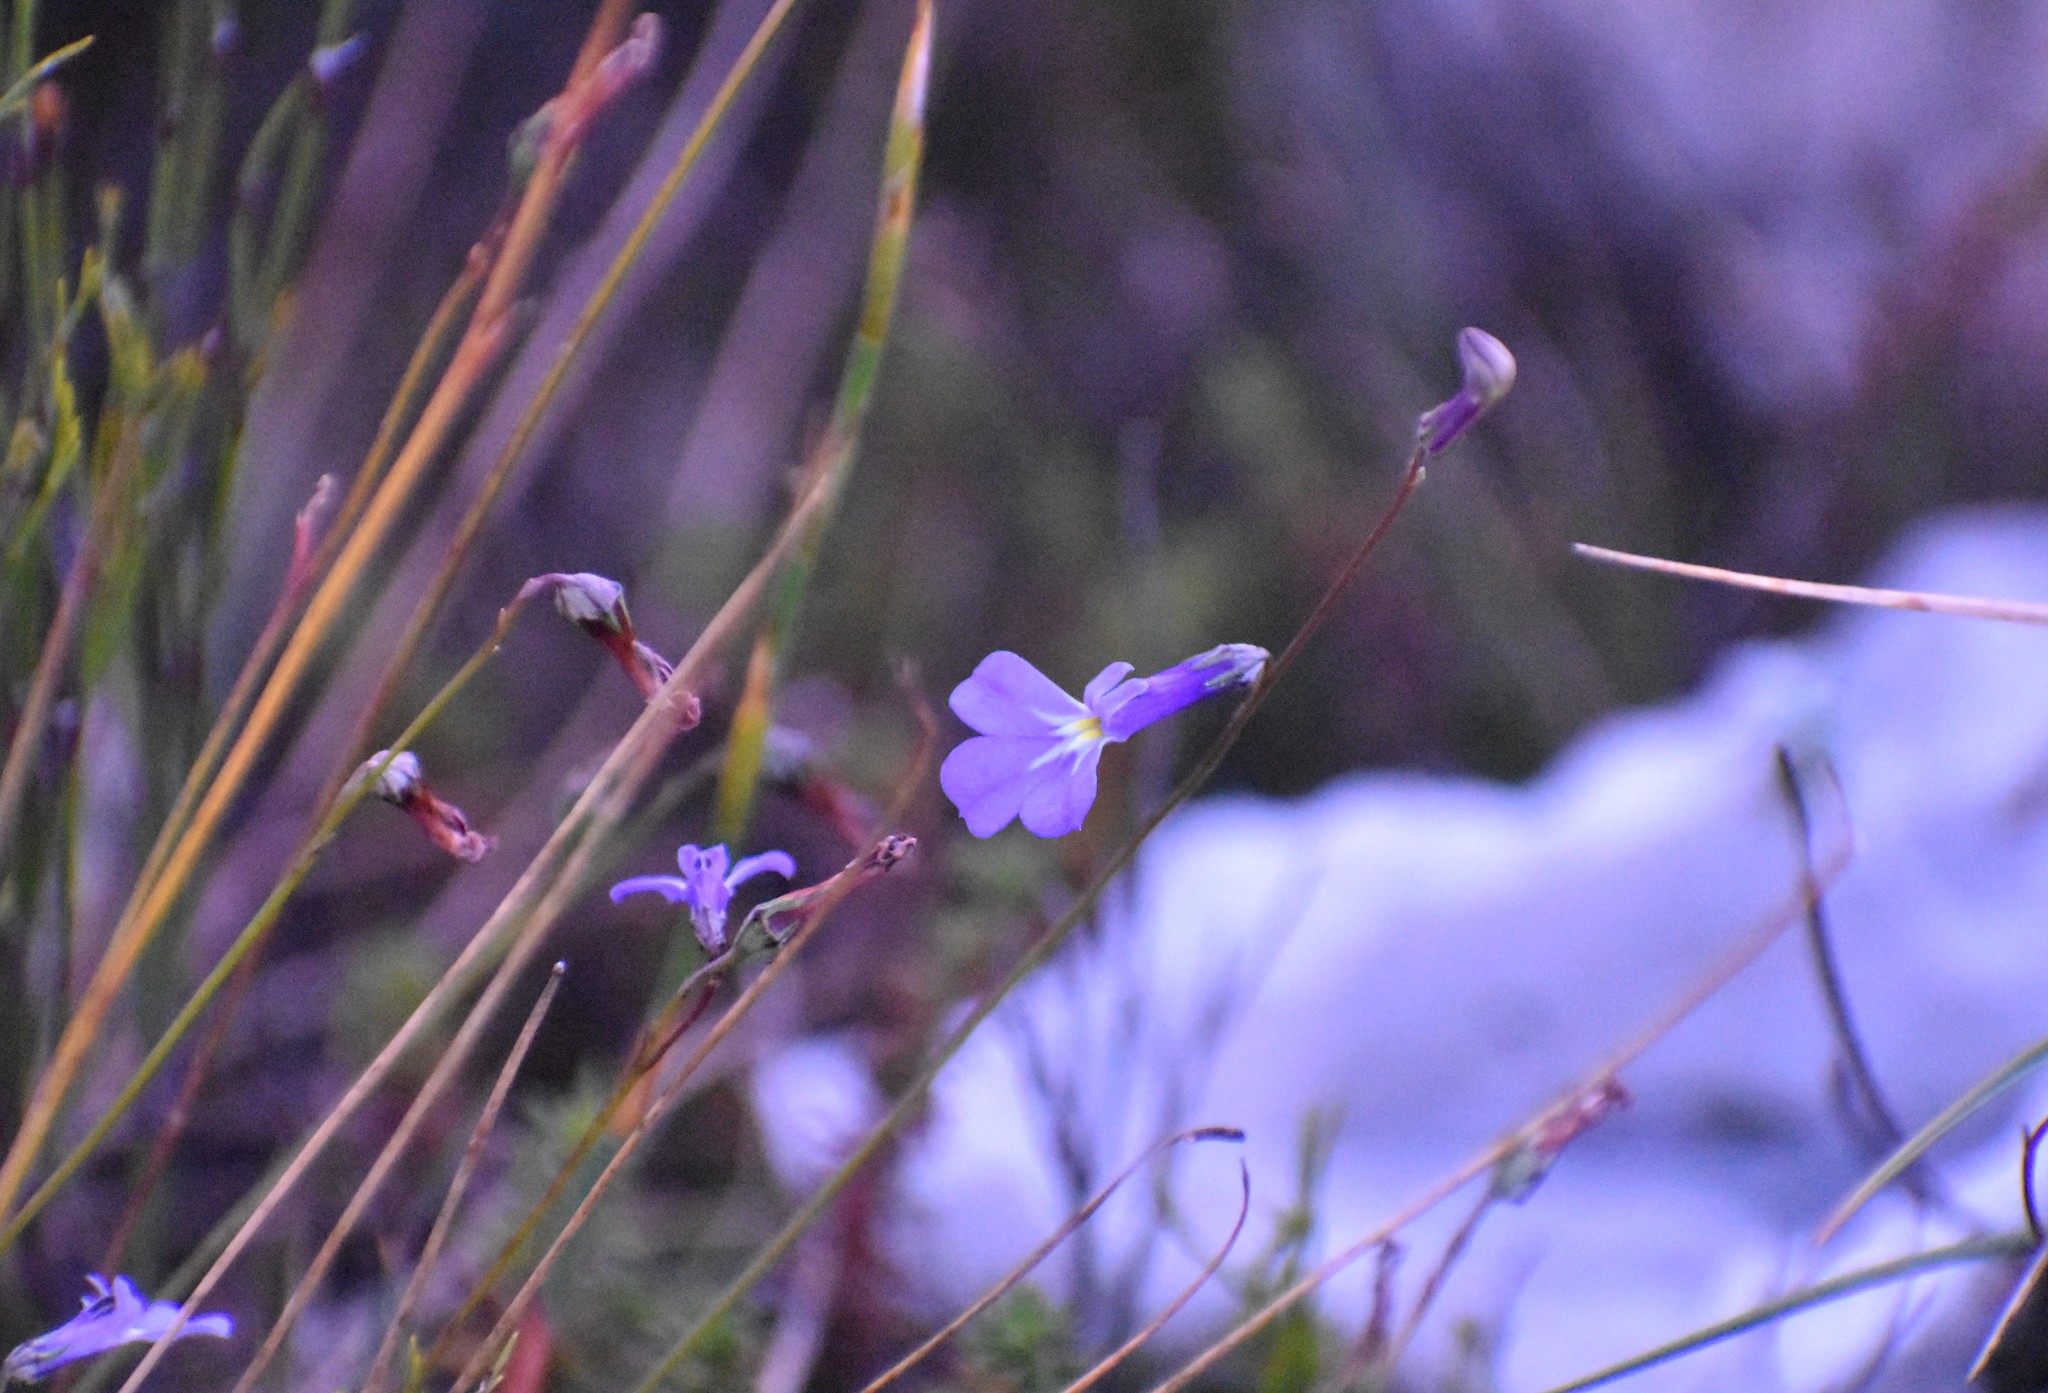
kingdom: Plantae
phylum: Tracheophyta
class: Magnoliopsida
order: Asterales
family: Campanulaceae
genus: Lobelia
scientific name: Lobelia tomentosa
